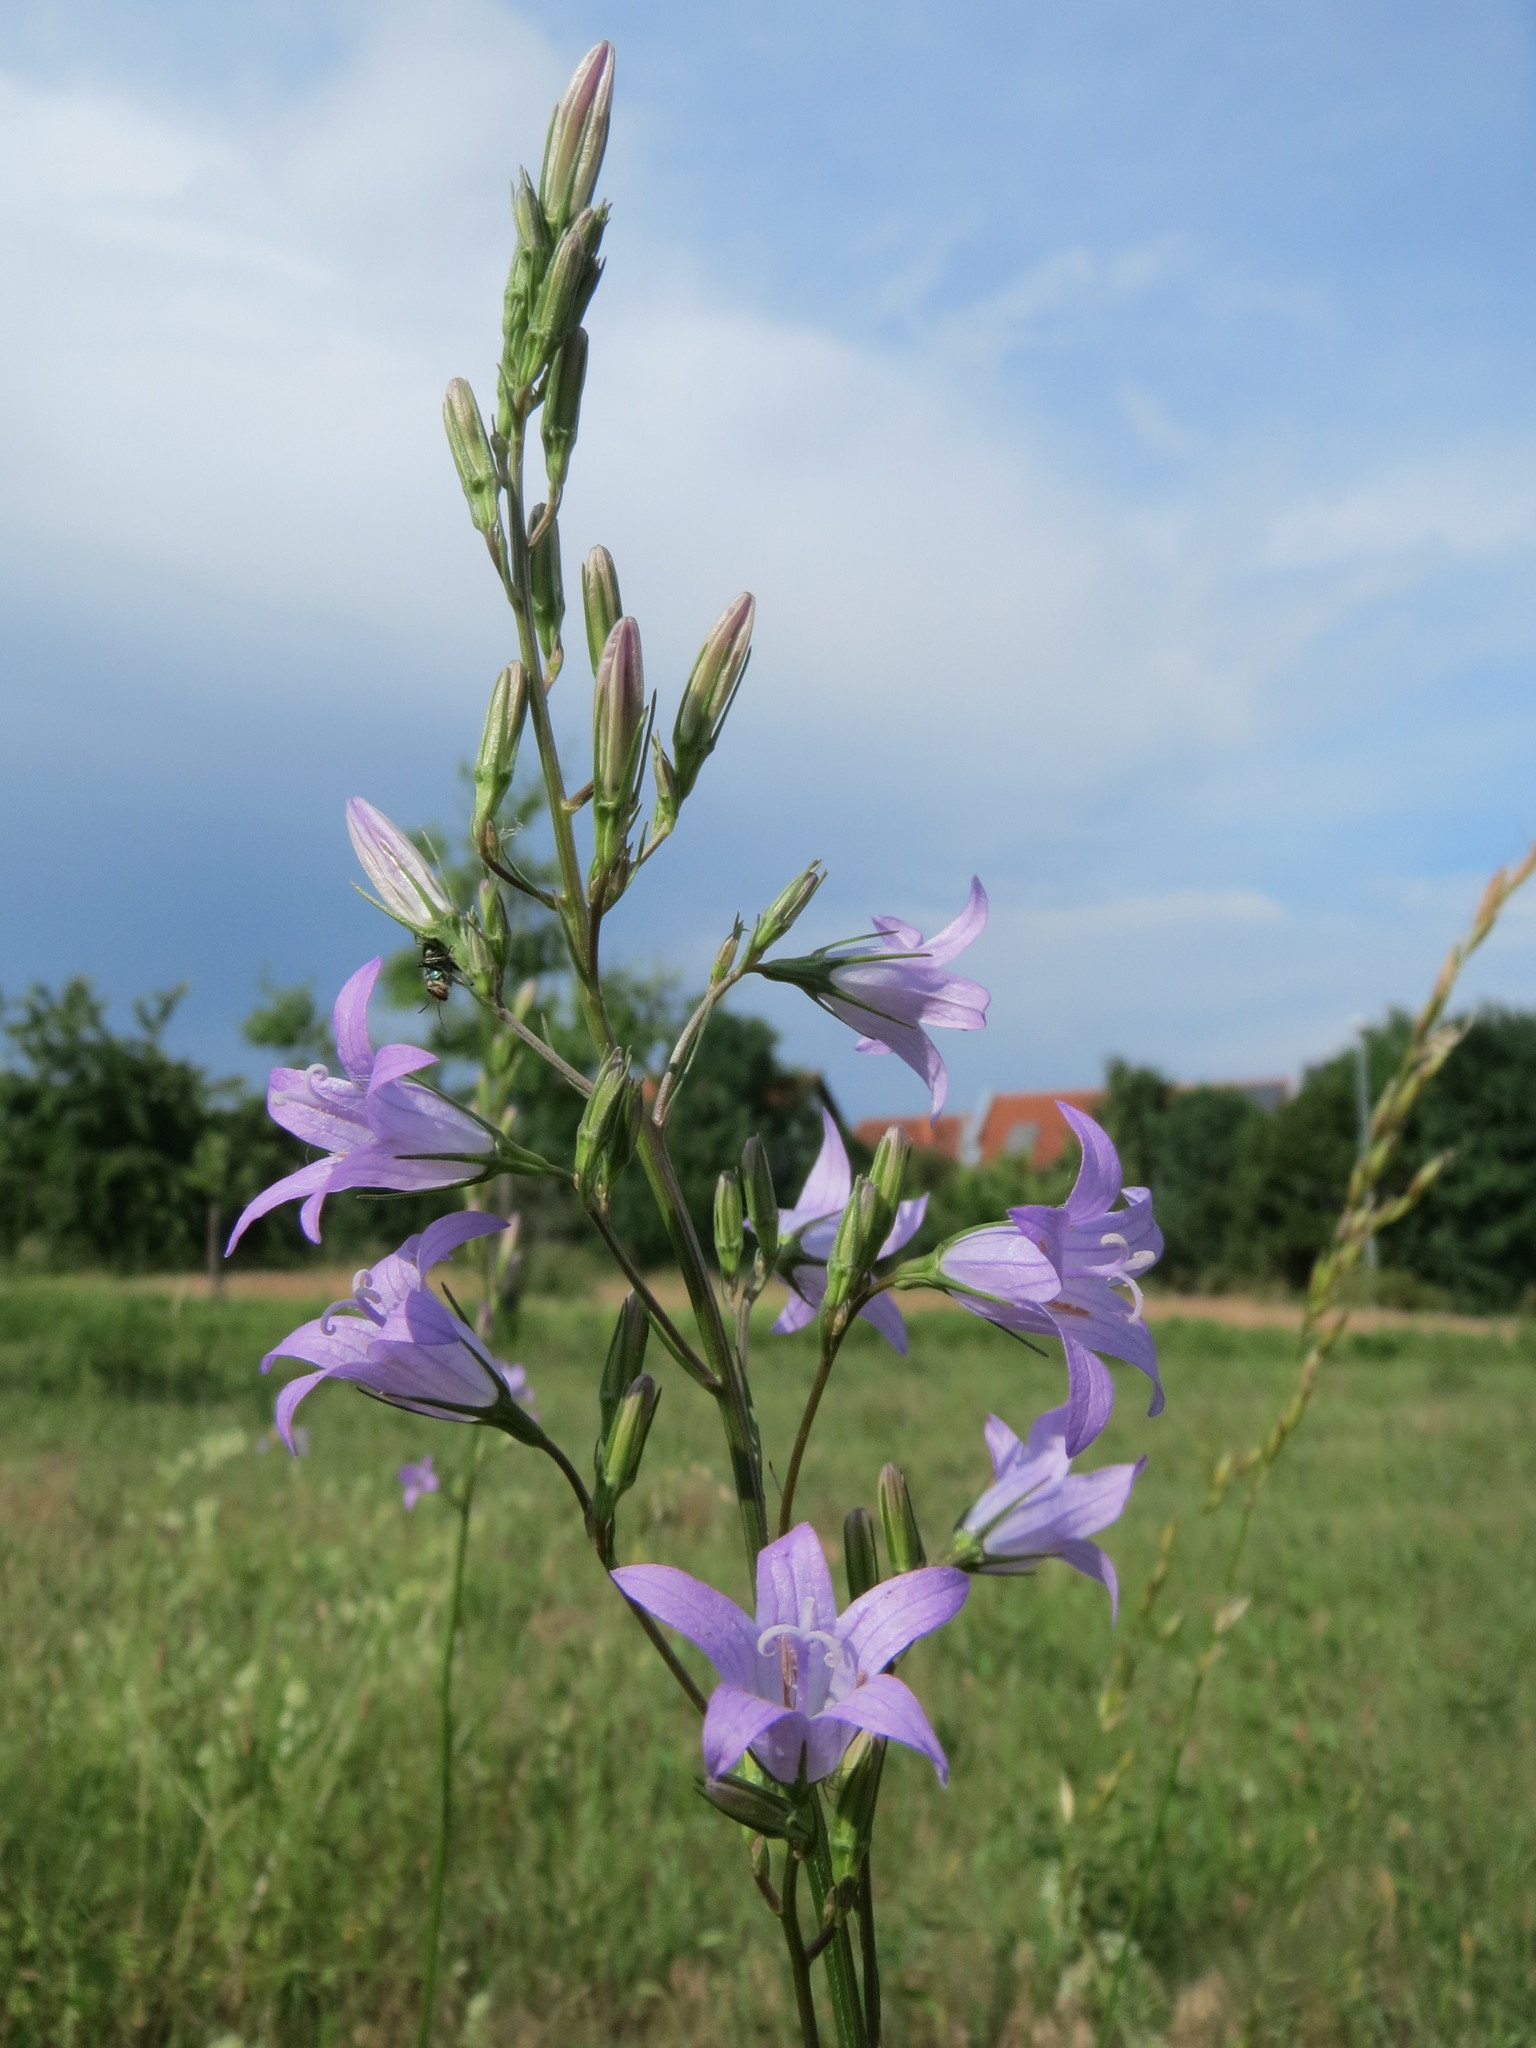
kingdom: Plantae
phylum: Tracheophyta
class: Magnoliopsida
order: Asterales
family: Campanulaceae
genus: Campanula
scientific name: Campanula rapunculus
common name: Rampion bellflower
